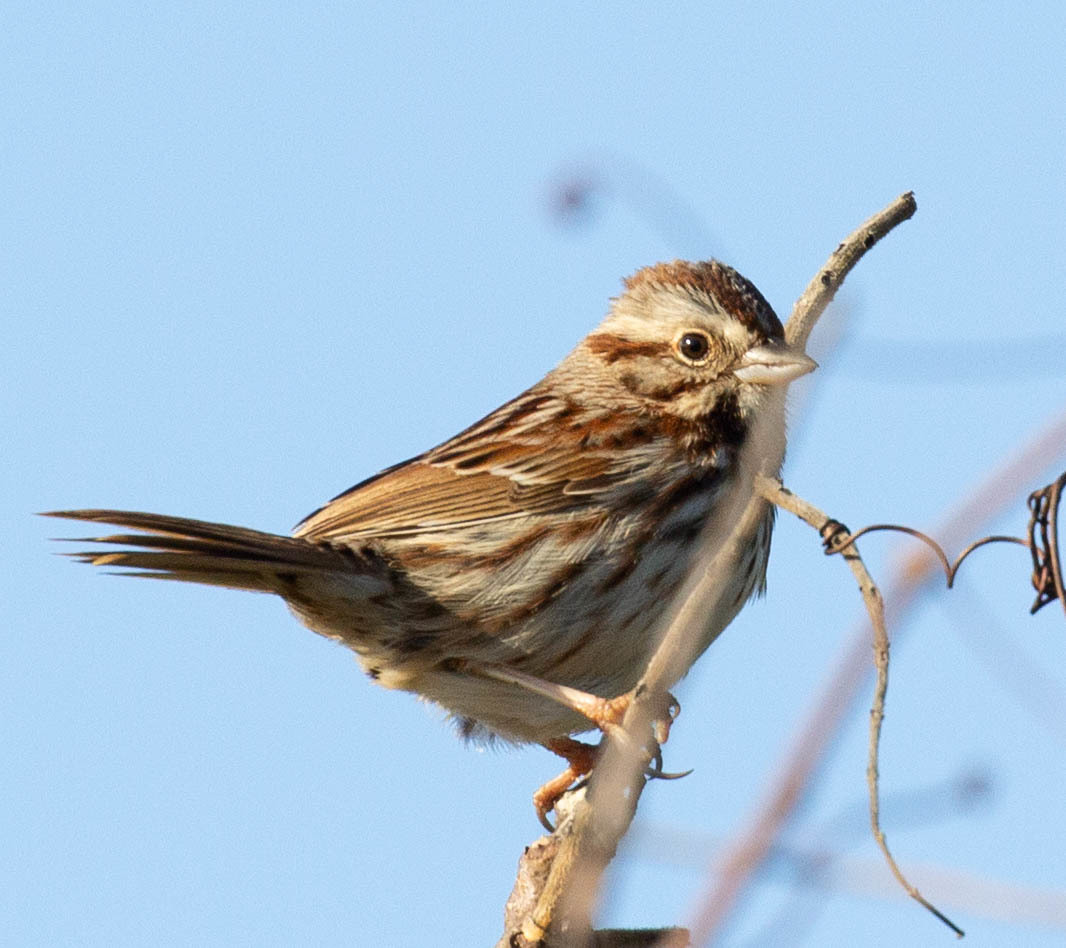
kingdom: Animalia
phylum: Chordata
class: Aves
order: Passeriformes
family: Passerellidae
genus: Melospiza
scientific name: Melospiza melodia
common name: Song sparrow
